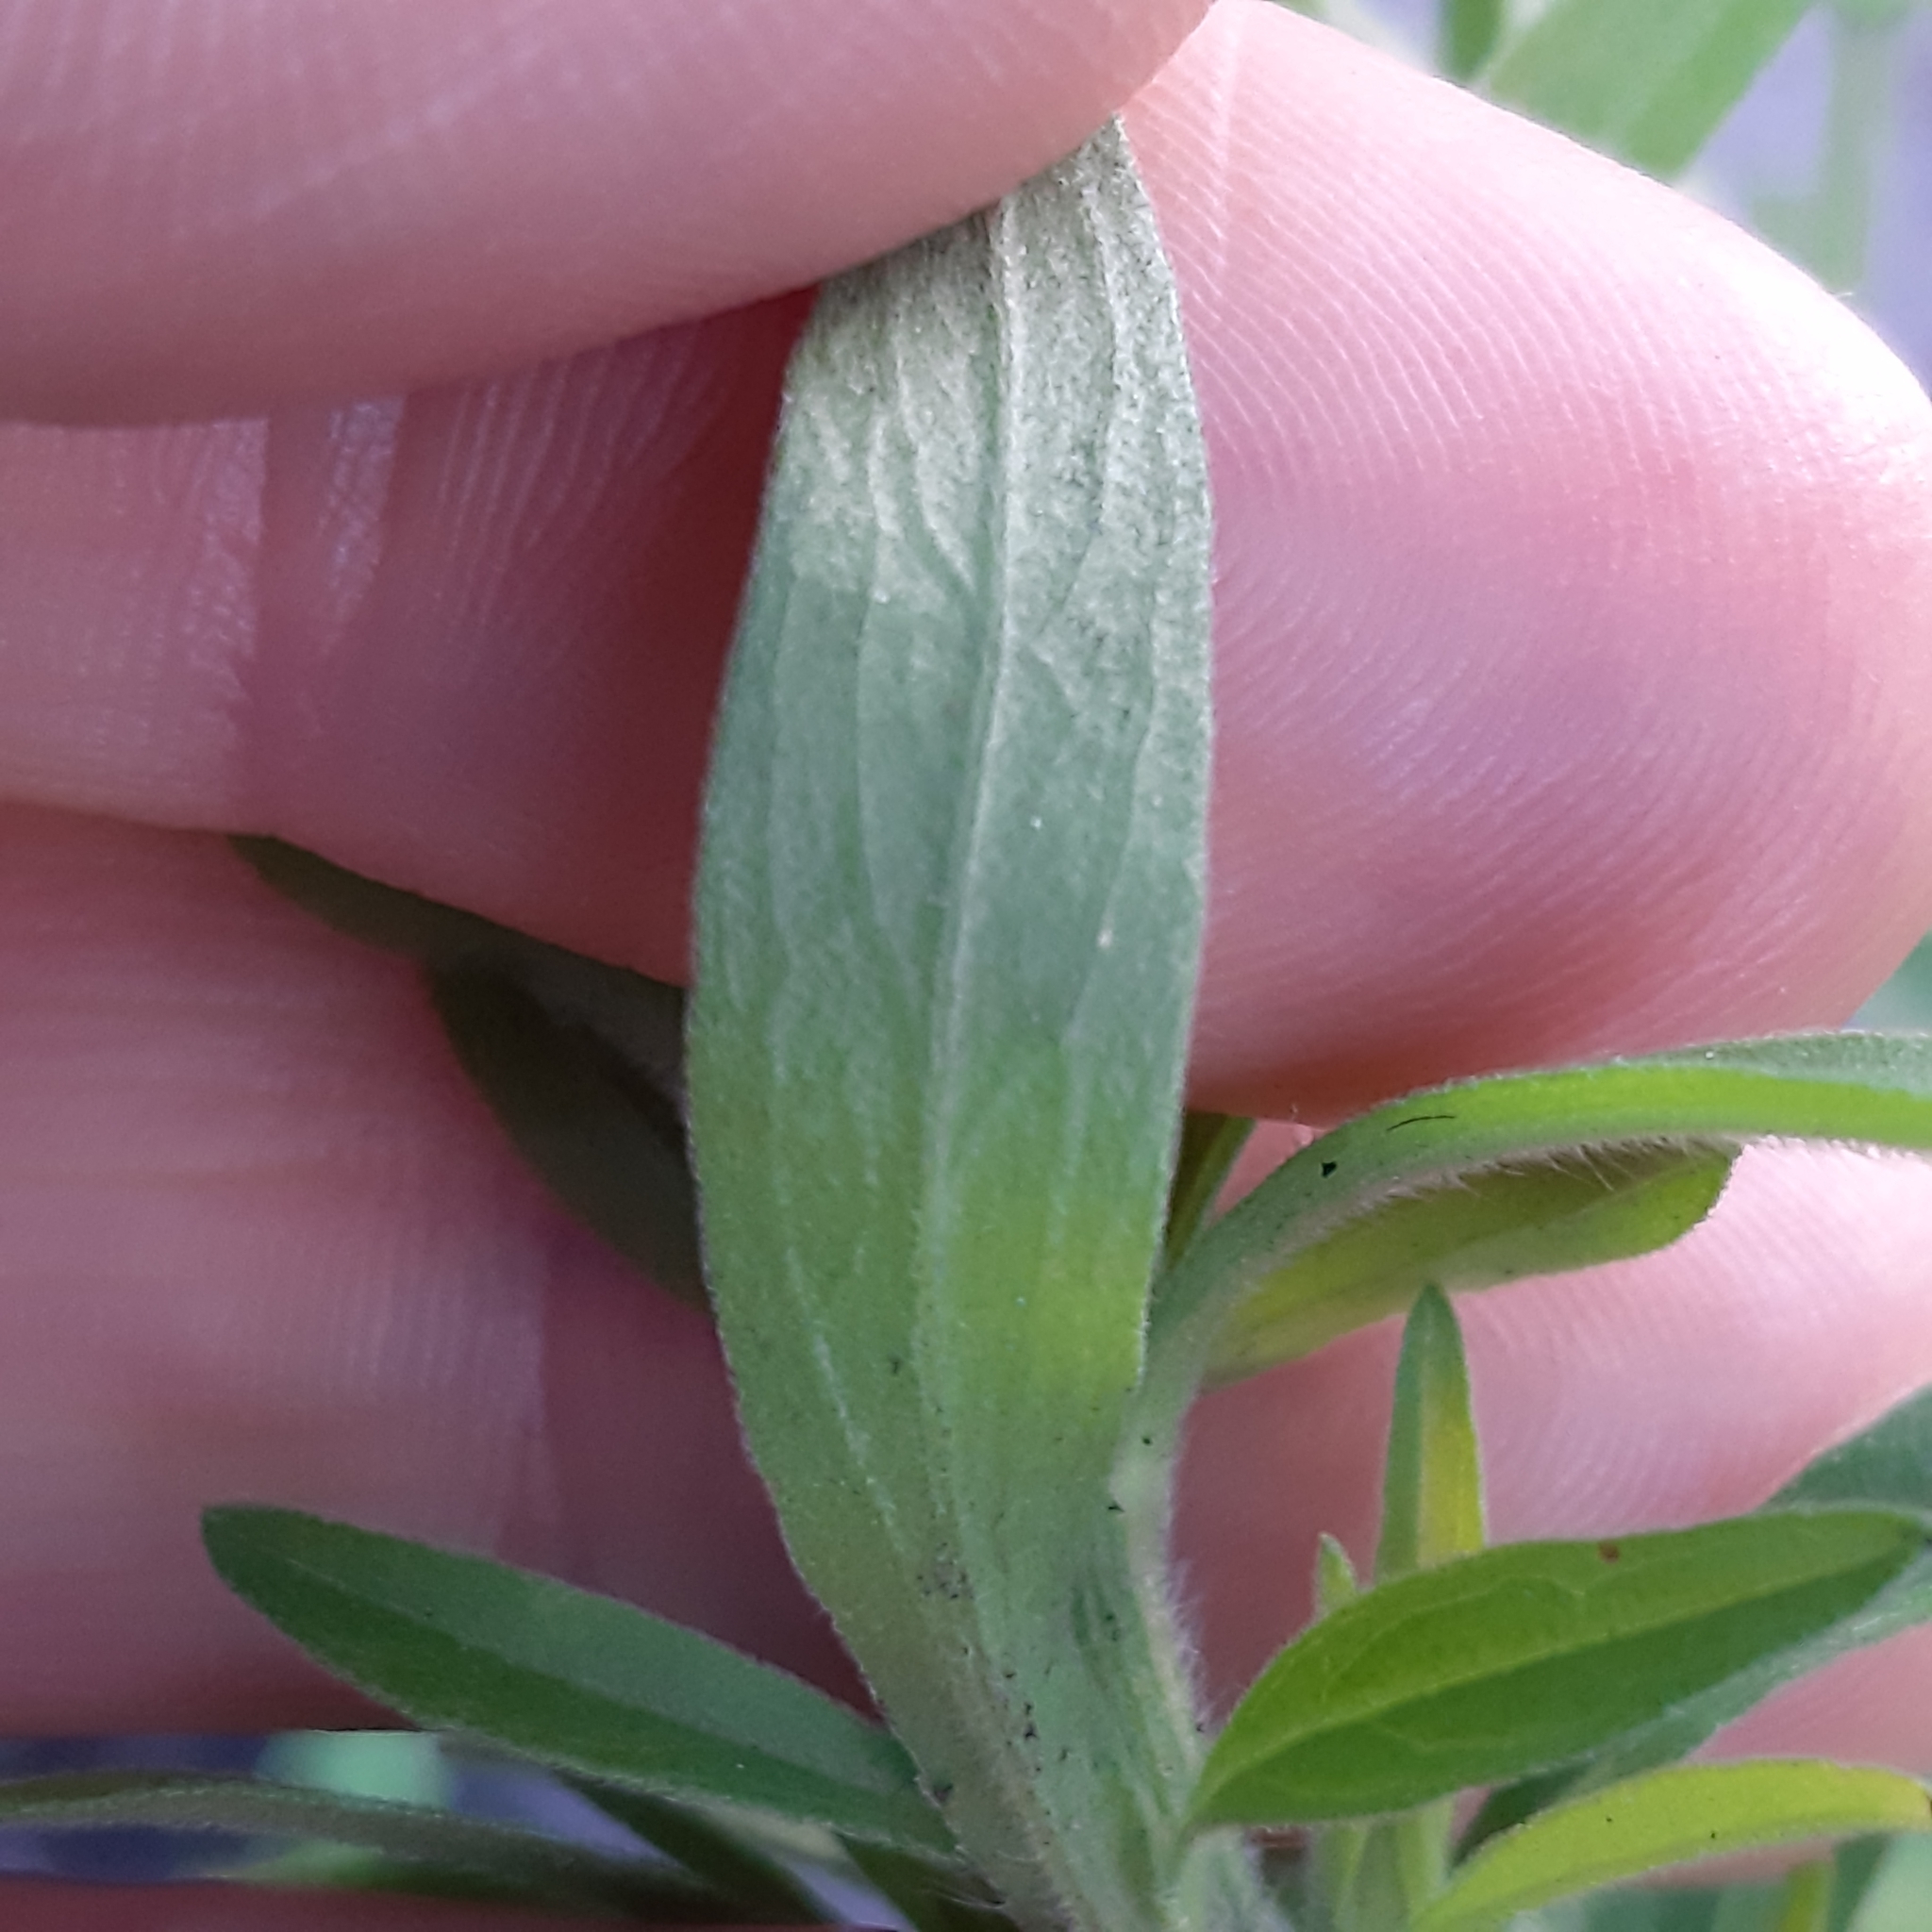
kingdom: Plantae
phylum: Tracheophyta
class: Magnoliopsida
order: Asterales
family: Asteraceae
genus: Erigeron
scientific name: Erigeron sumatrensis
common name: Daisy
